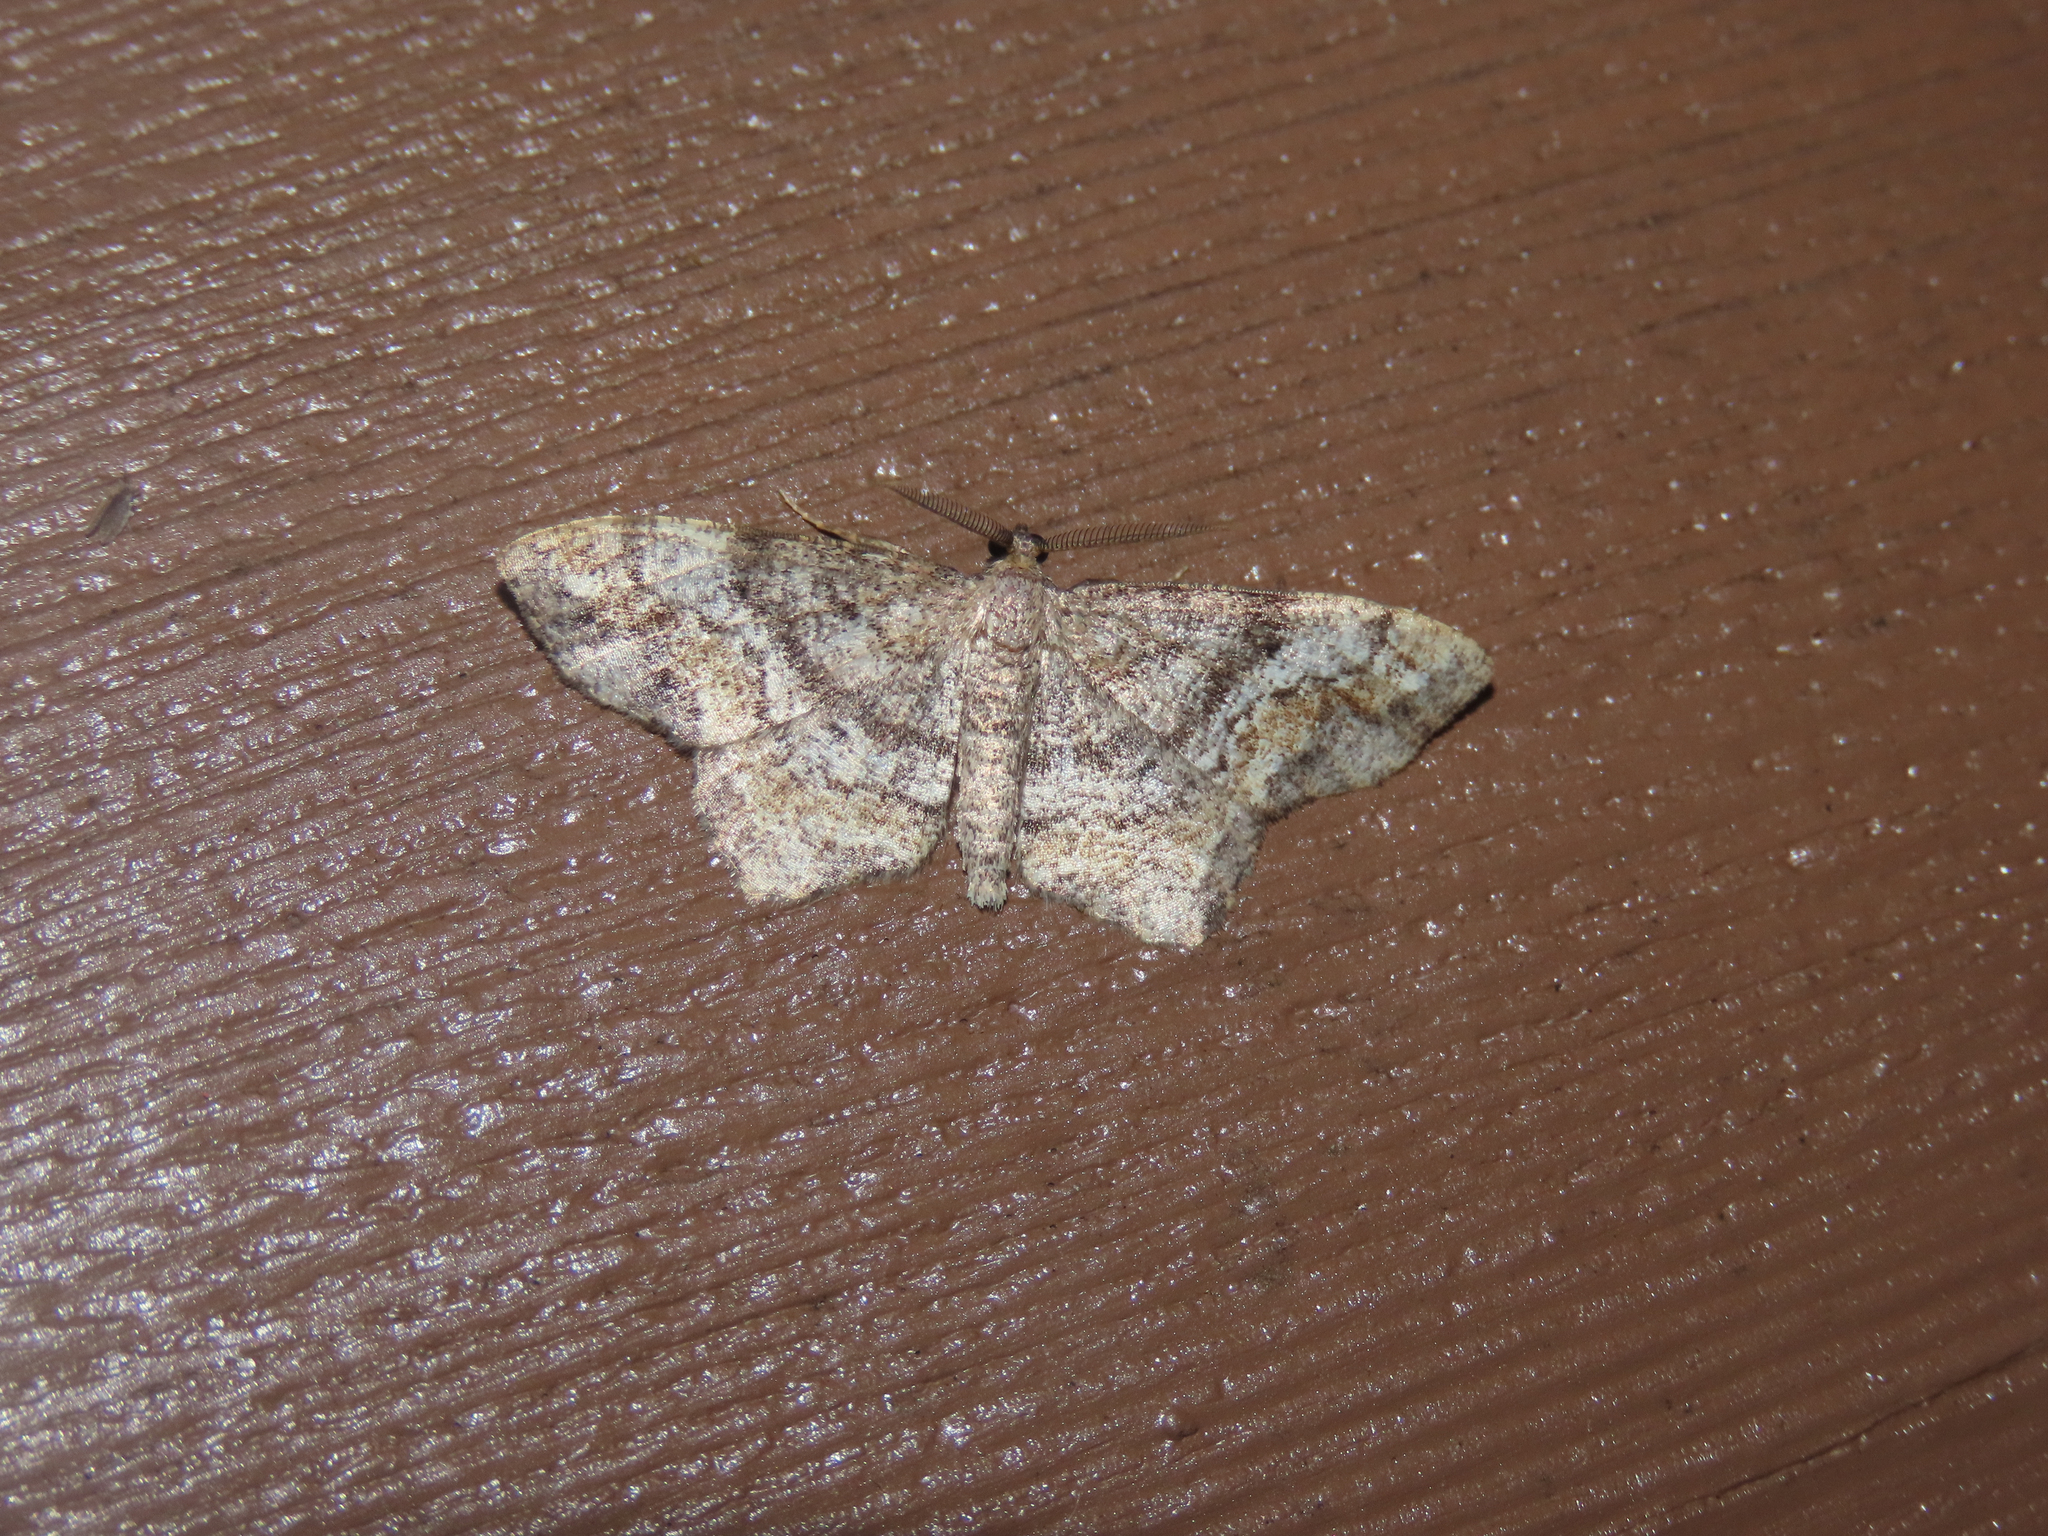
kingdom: Animalia
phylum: Arthropoda
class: Insecta
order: Lepidoptera
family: Geometridae
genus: Hypagyrtis
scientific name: Hypagyrtis unipunctata
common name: One-spotted variant
